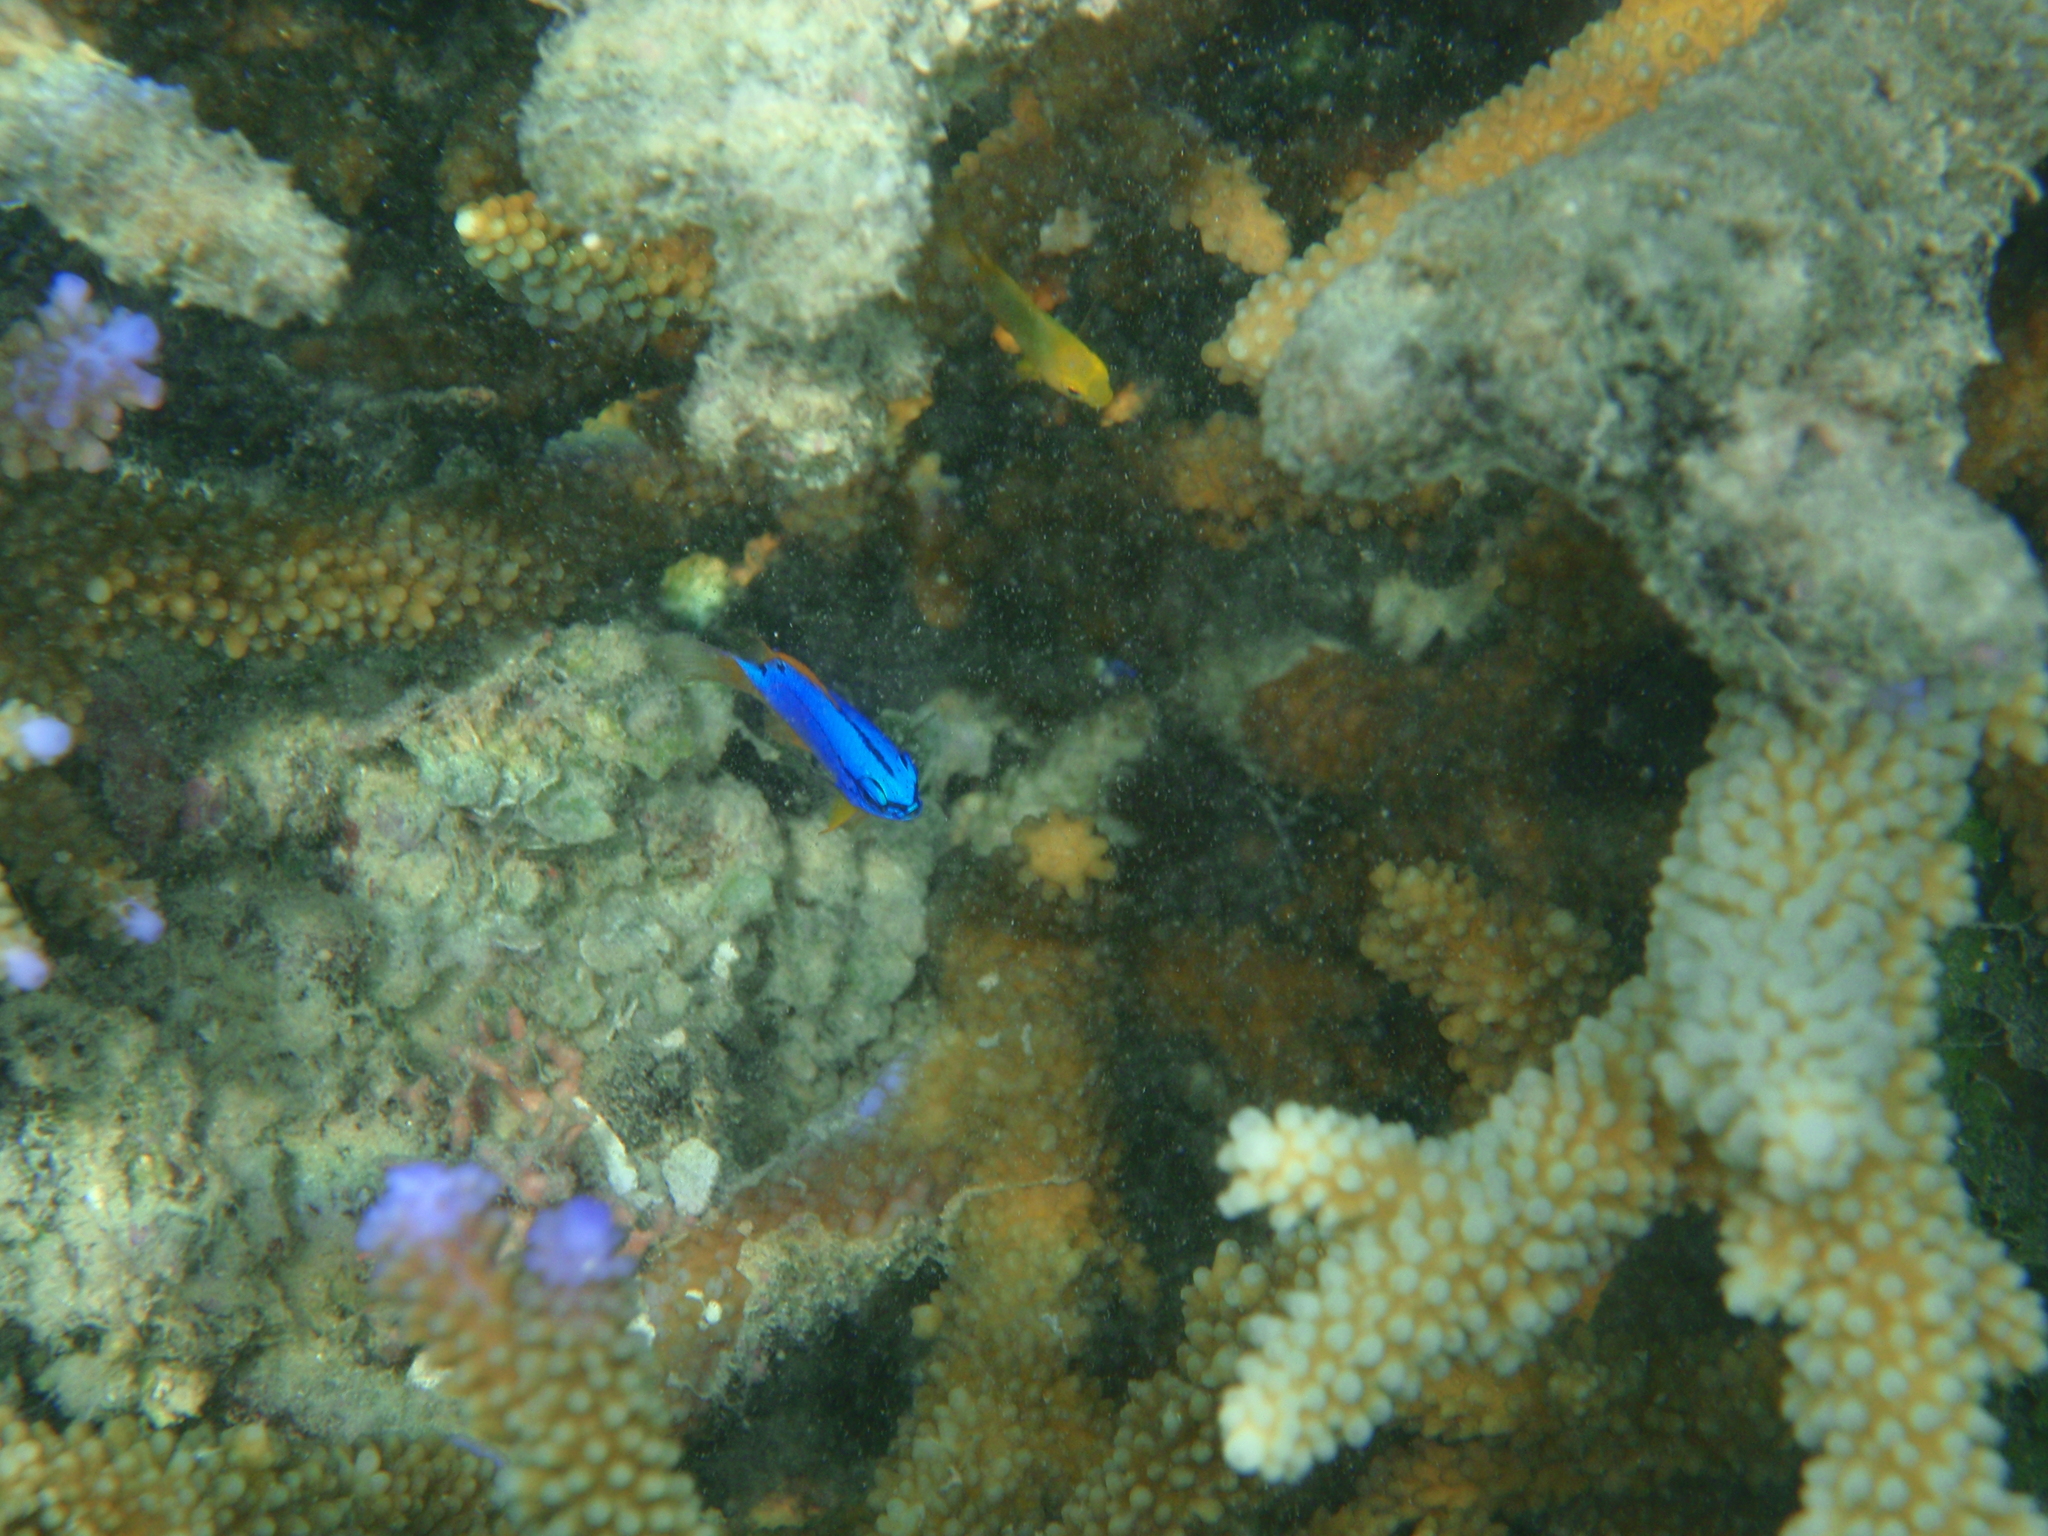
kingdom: Animalia
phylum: Chordata
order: Perciformes
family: Pomacentridae
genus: Chrysiptera
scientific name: Chrysiptera taupou
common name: Fiji damsel
